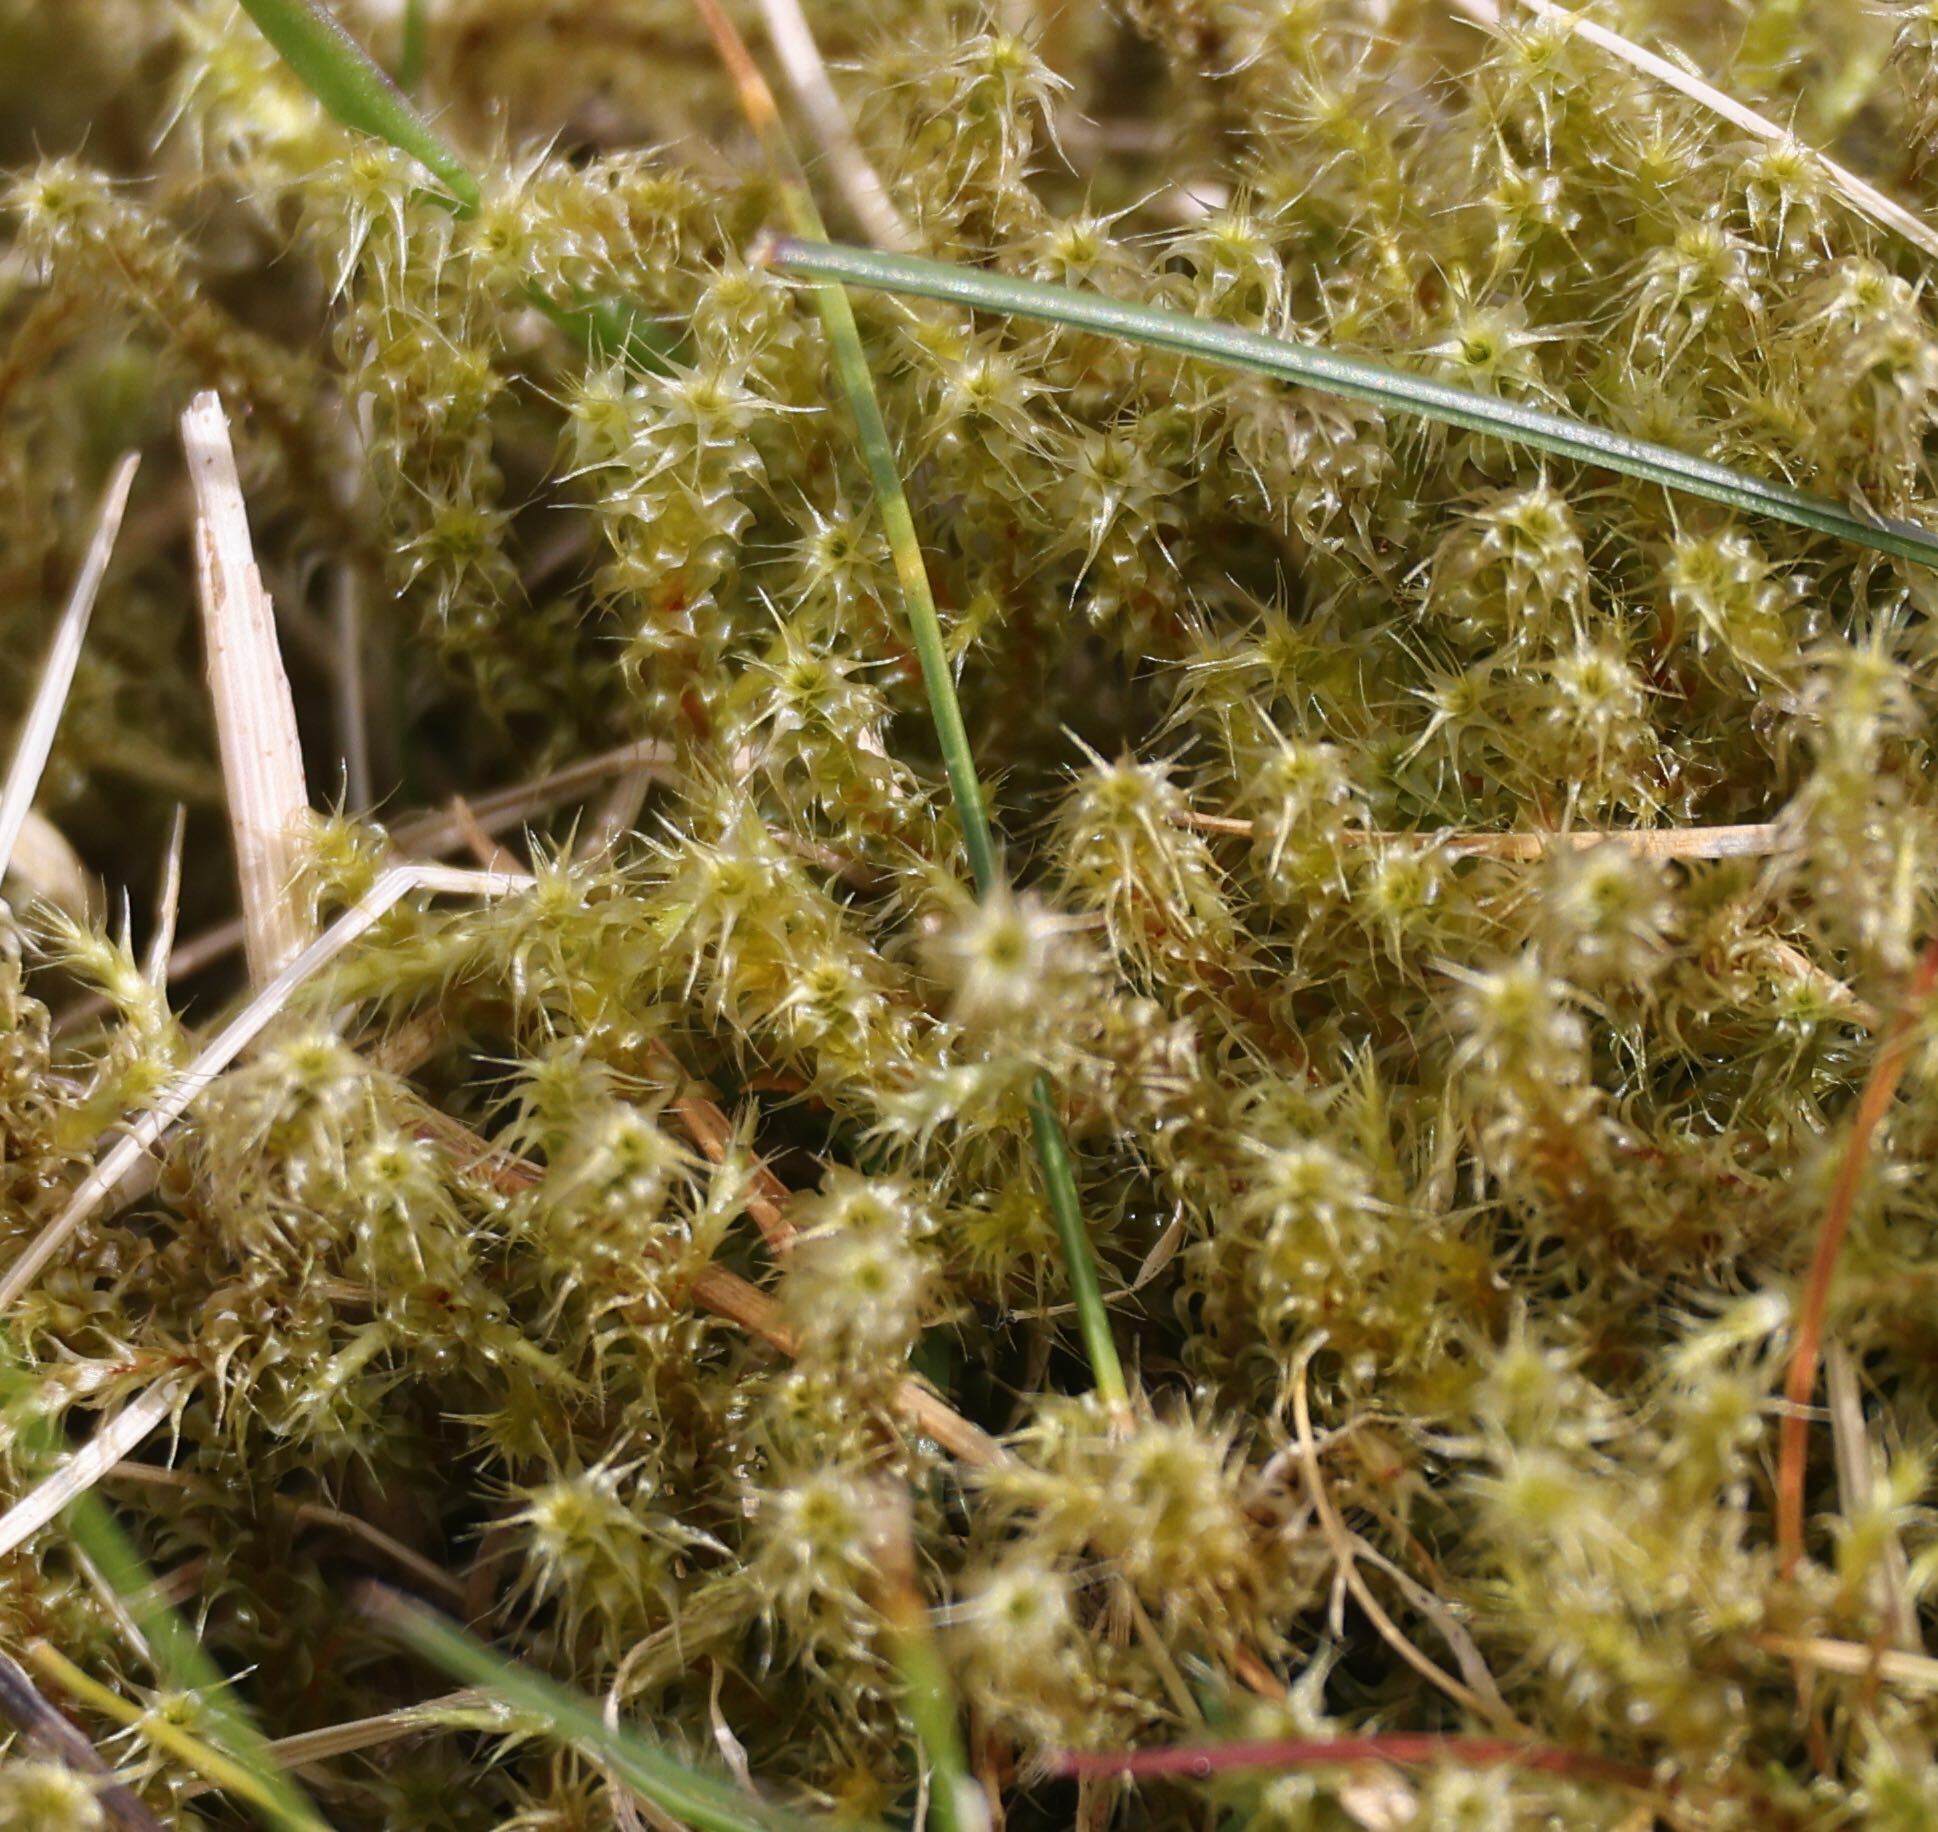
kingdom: Plantae
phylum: Bryophyta
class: Bryopsida
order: Hypnales
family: Hylocomiaceae
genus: Rhytidiadelphus
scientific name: Rhytidiadelphus squarrosus
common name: Springy turf-moss
